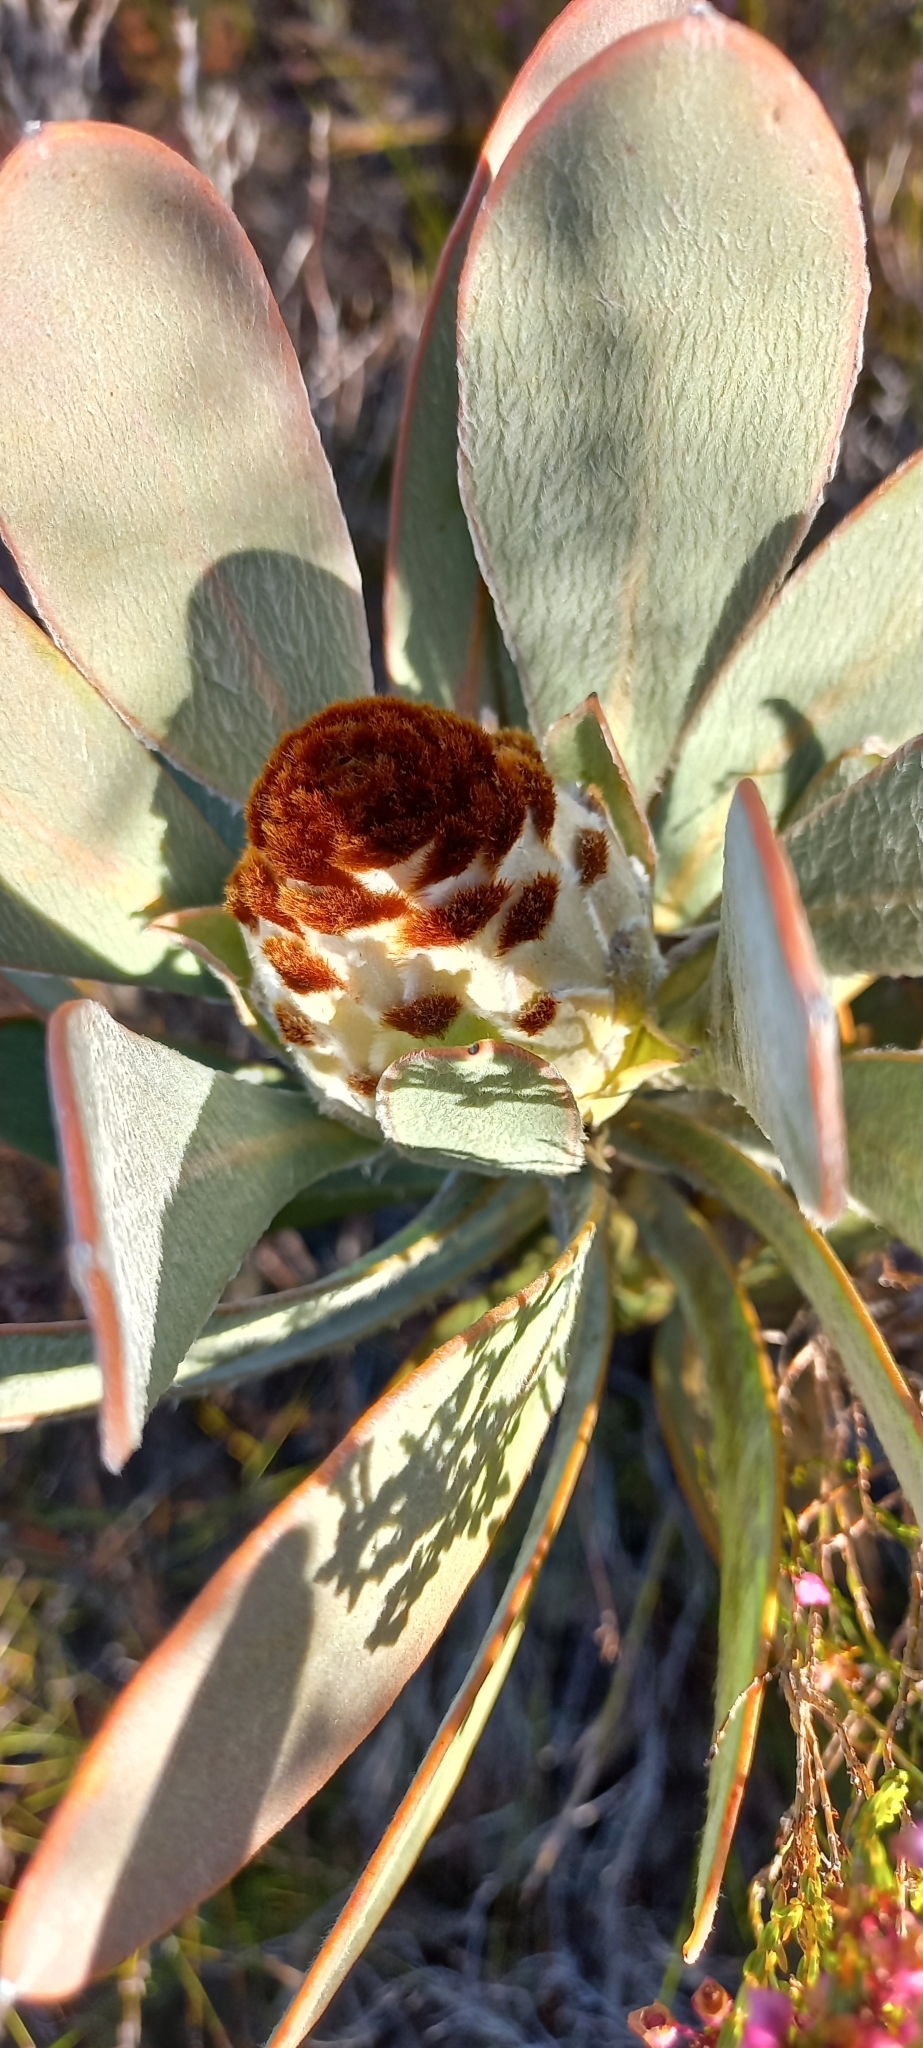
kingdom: Plantae
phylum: Tracheophyta
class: Magnoliopsida
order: Proteales
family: Proteaceae
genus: Protea
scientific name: Protea speciosa
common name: Brown-beard sugarbush
